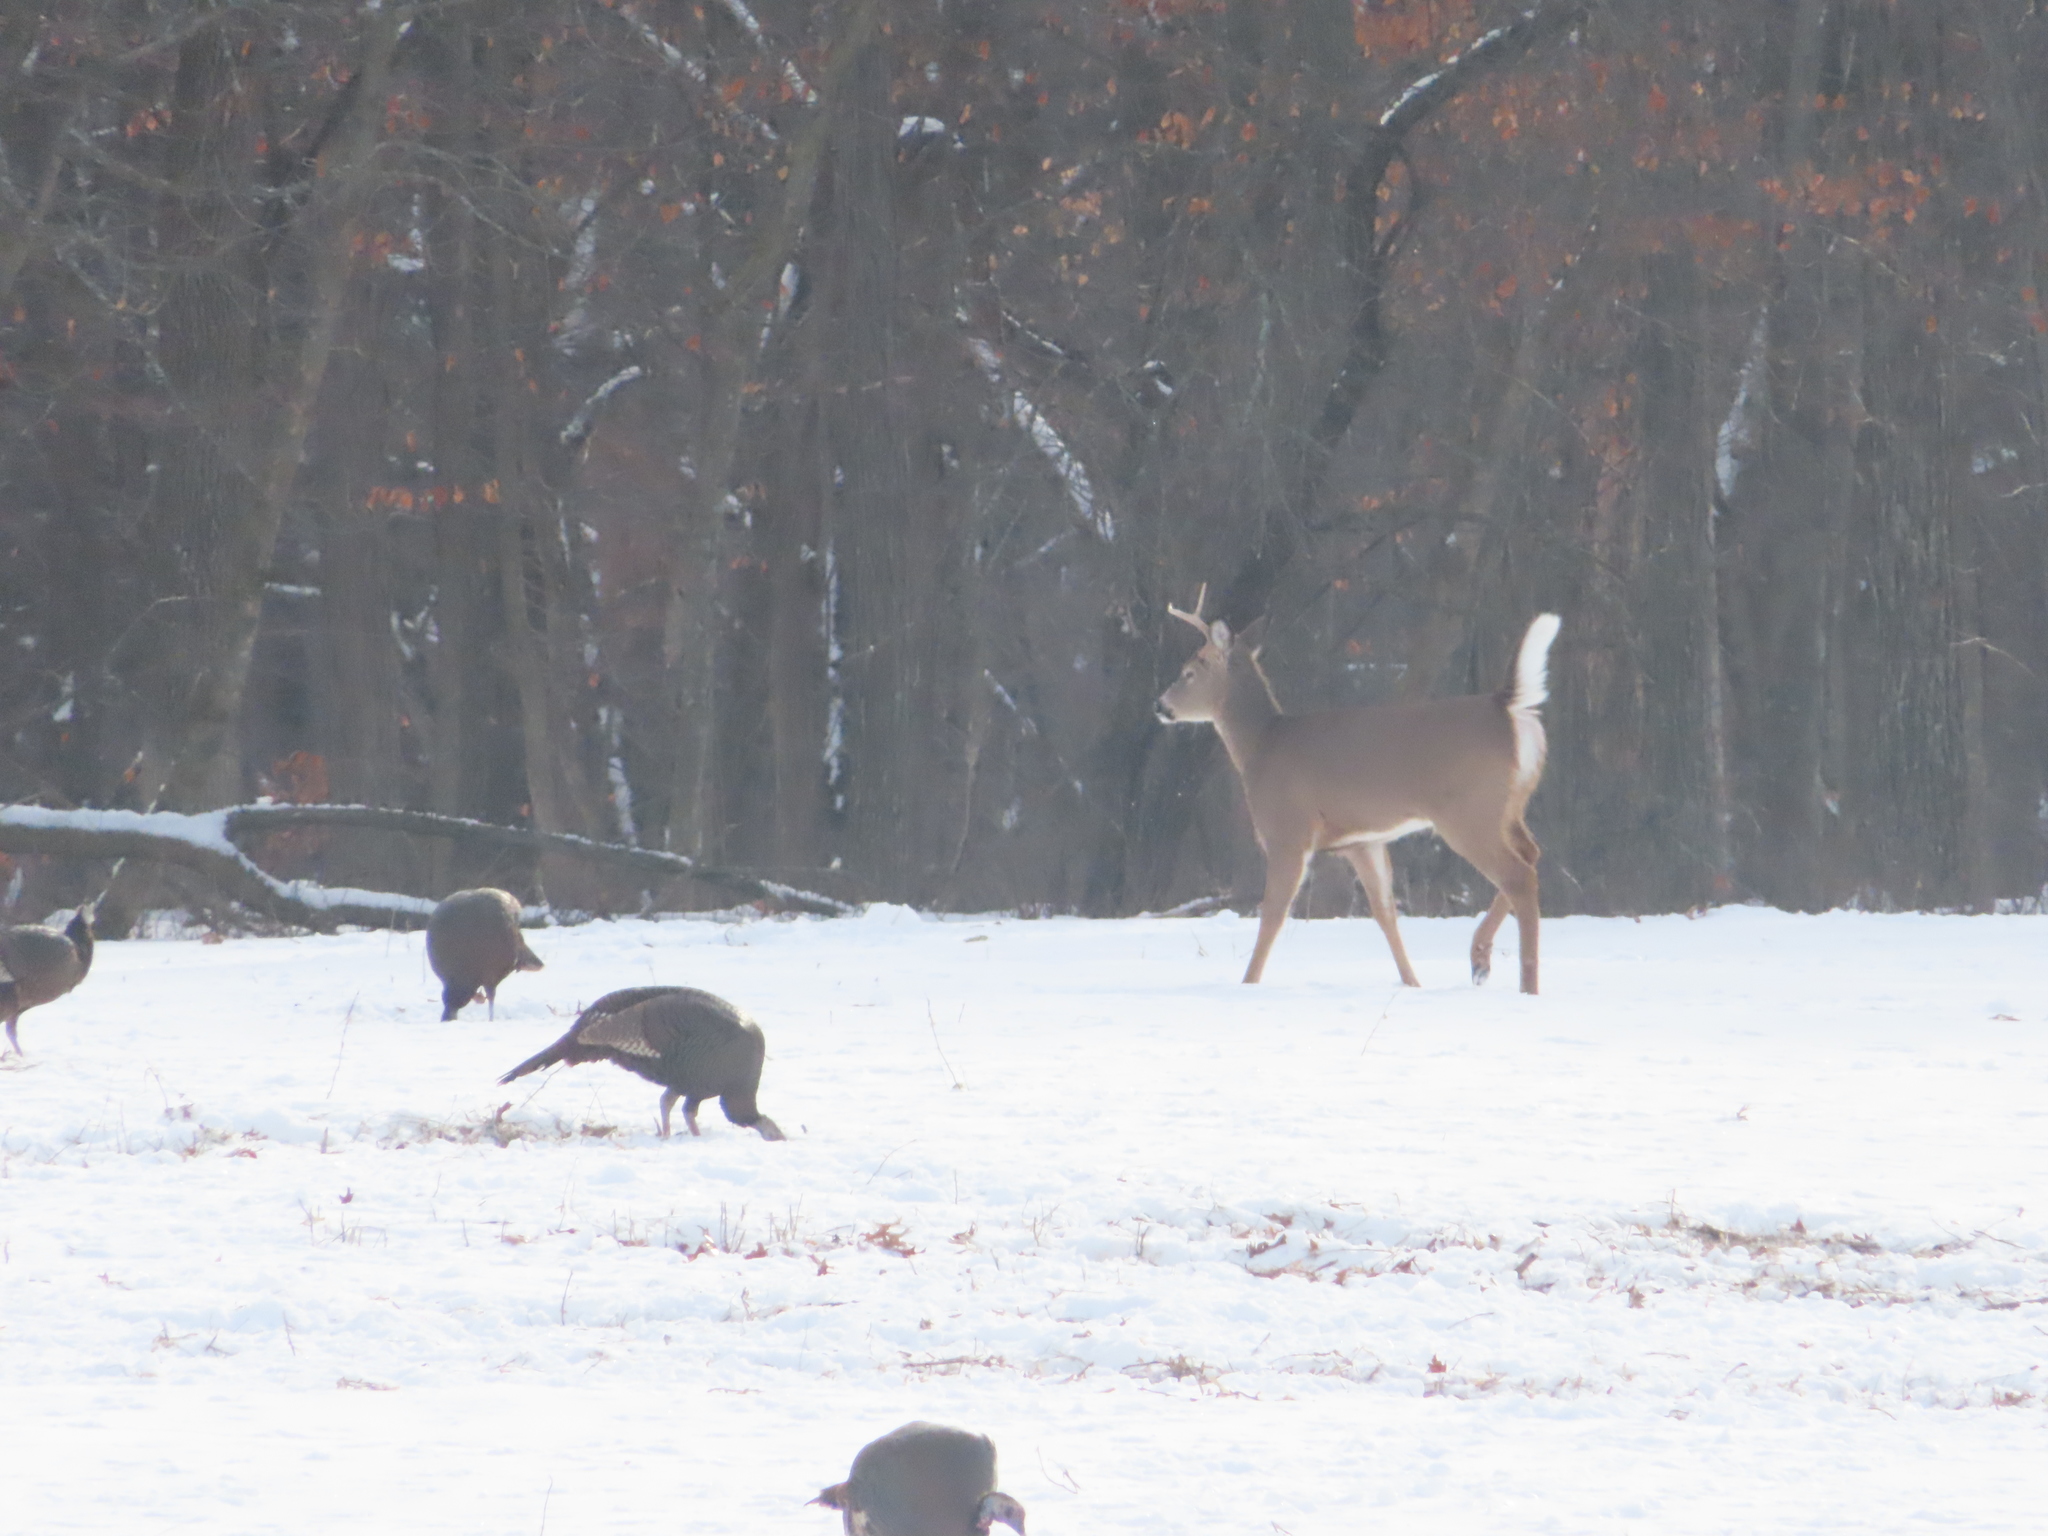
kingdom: Animalia
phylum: Chordata
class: Mammalia
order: Artiodactyla
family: Cervidae
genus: Odocoileus
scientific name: Odocoileus virginianus
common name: White-tailed deer
